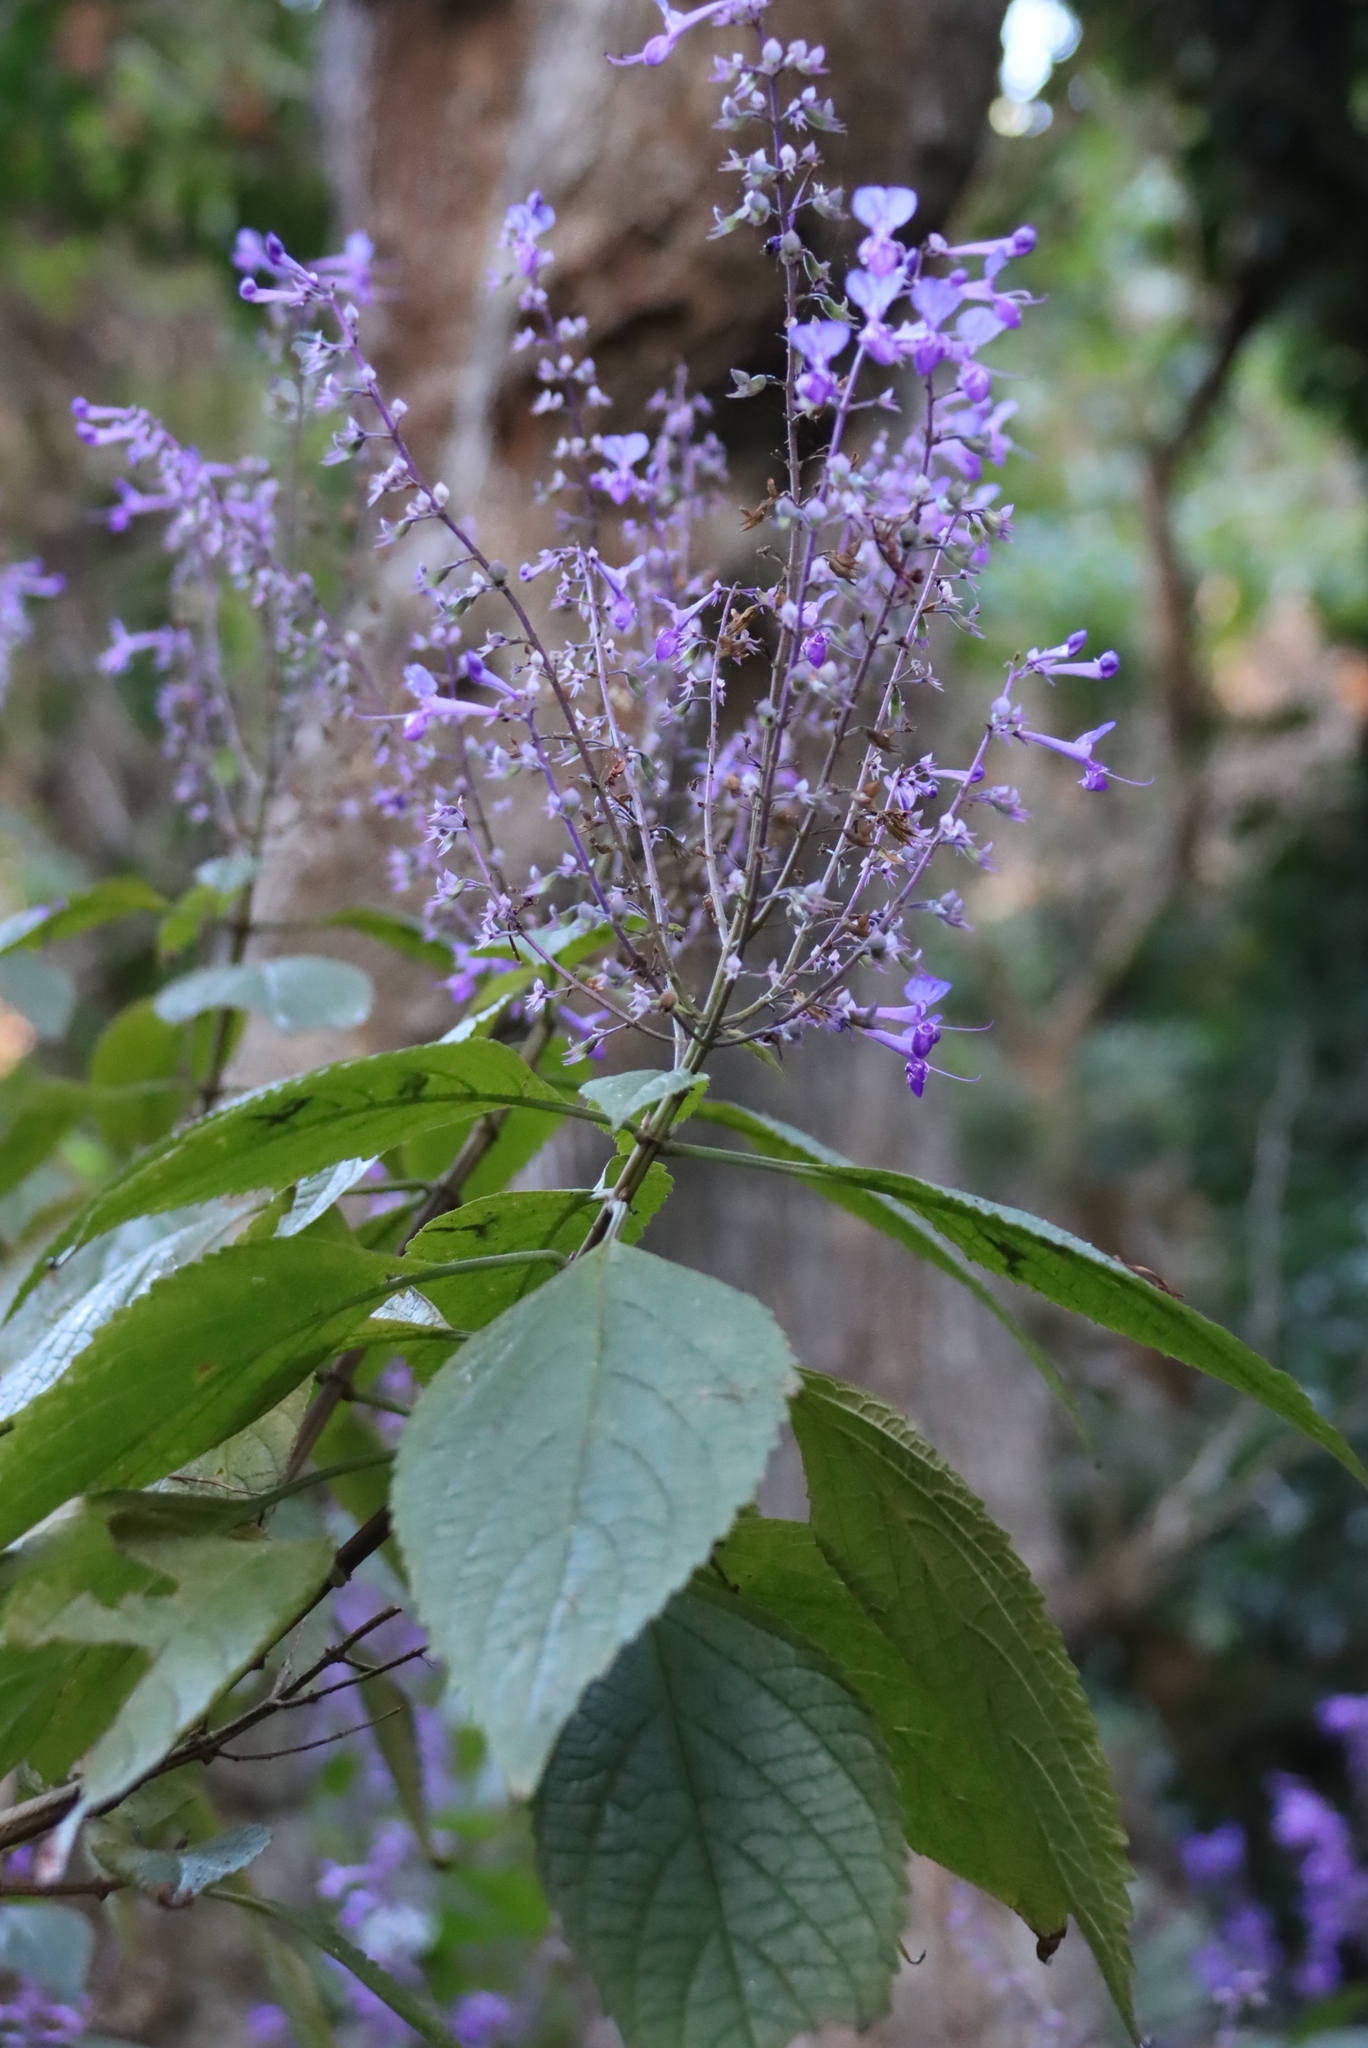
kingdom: Plantae
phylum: Tracheophyta
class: Magnoliopsida
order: Lamiales
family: Lamiaceae
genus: Plectranthus
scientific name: Plectranthus ecklonii
